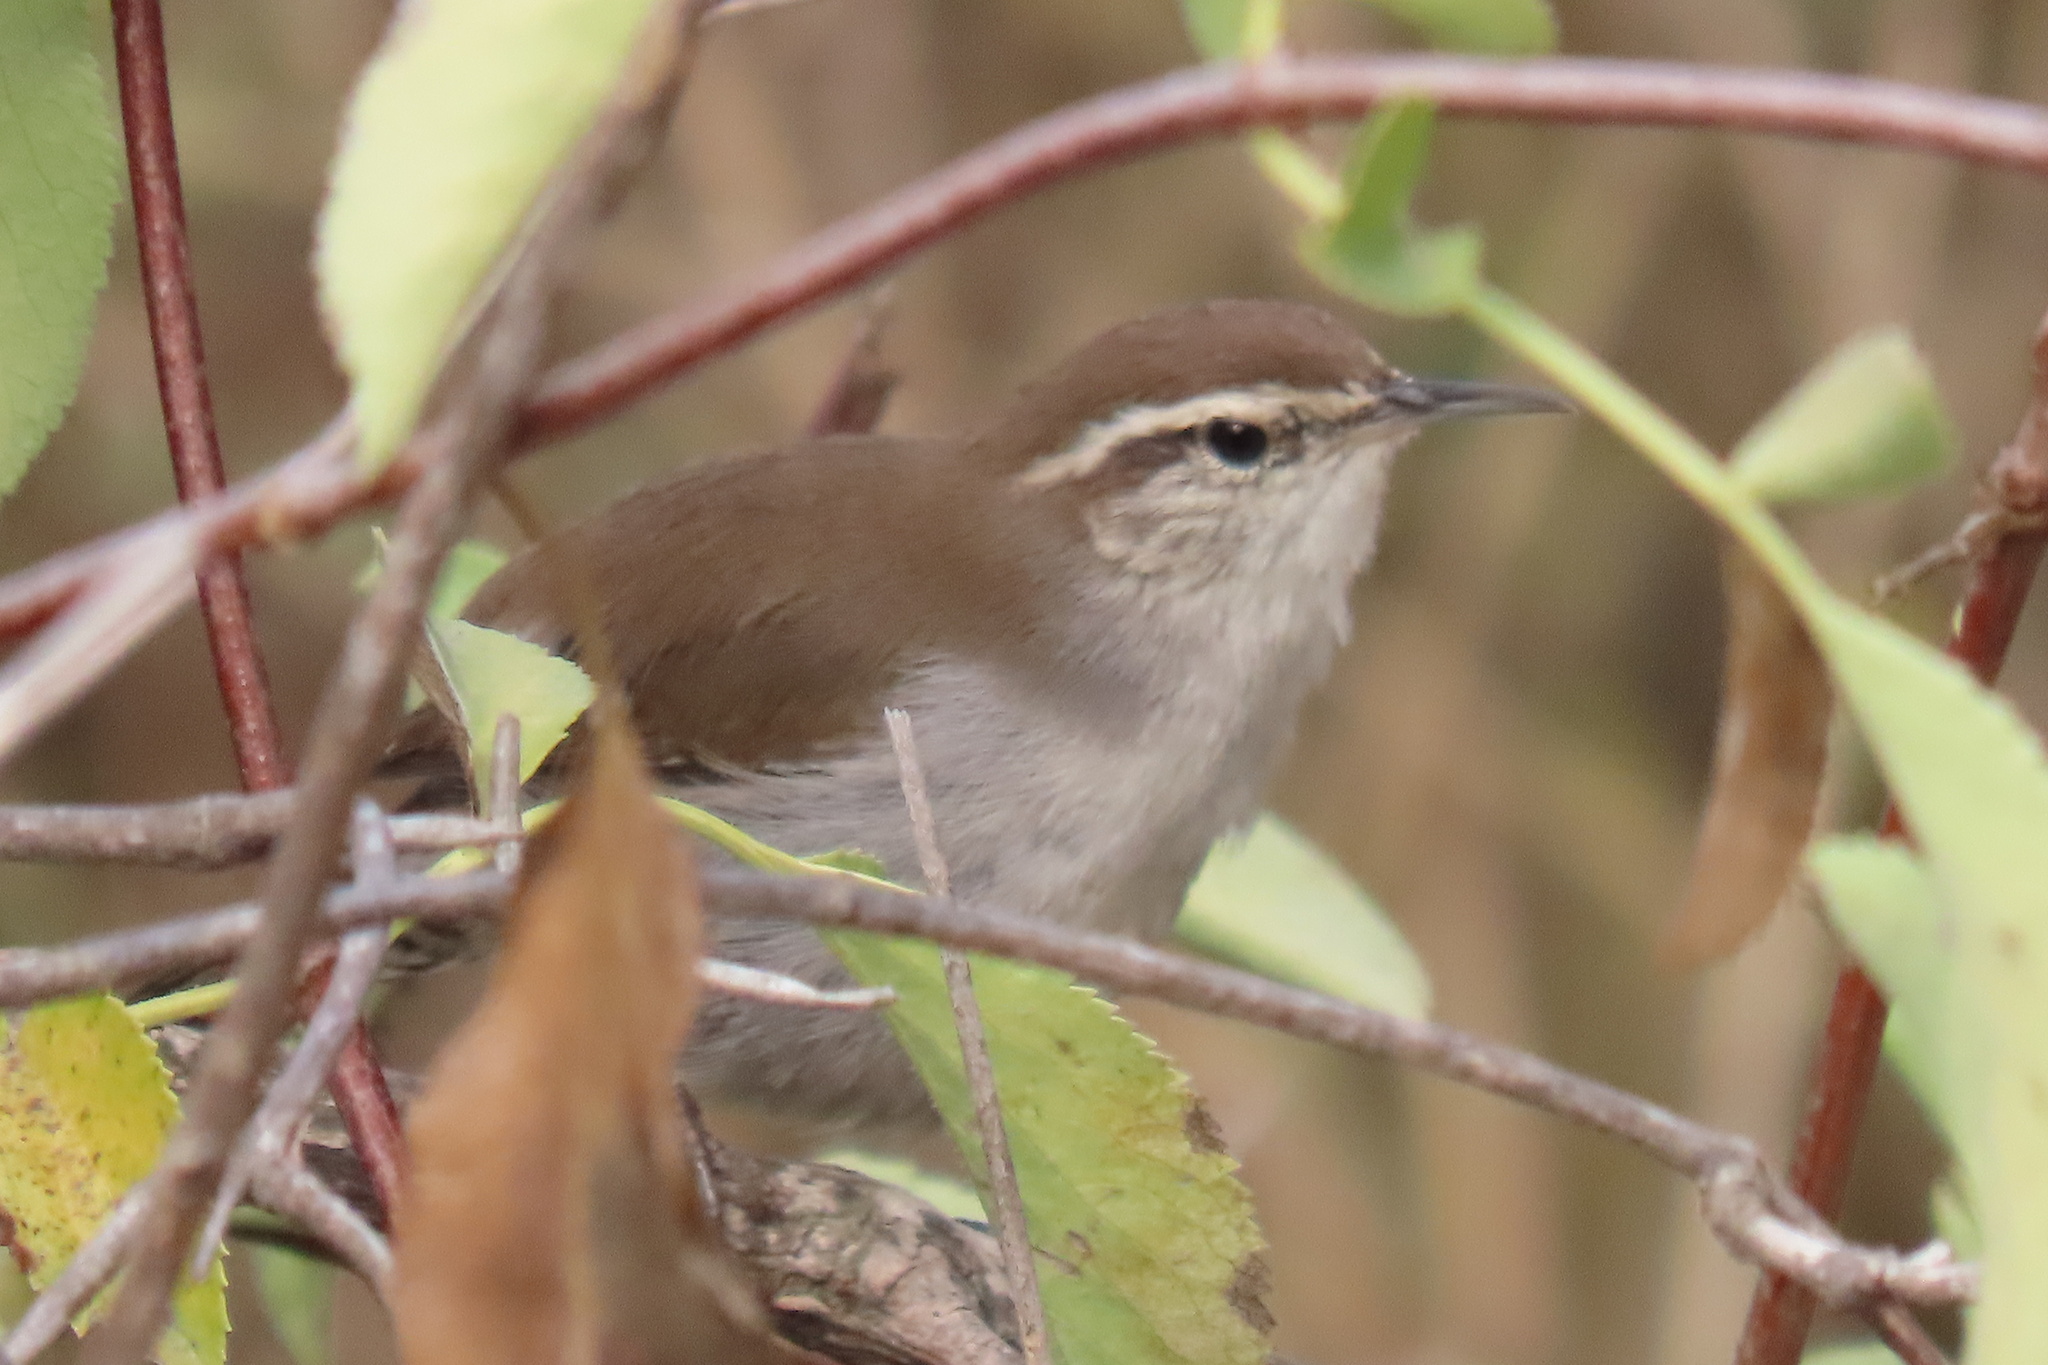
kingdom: Animalia
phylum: Chordata
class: Aves
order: Passeriformes
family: Troglodytidae
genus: Thryomanes
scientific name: Thryomanes bewickii
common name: Bewick's wren
